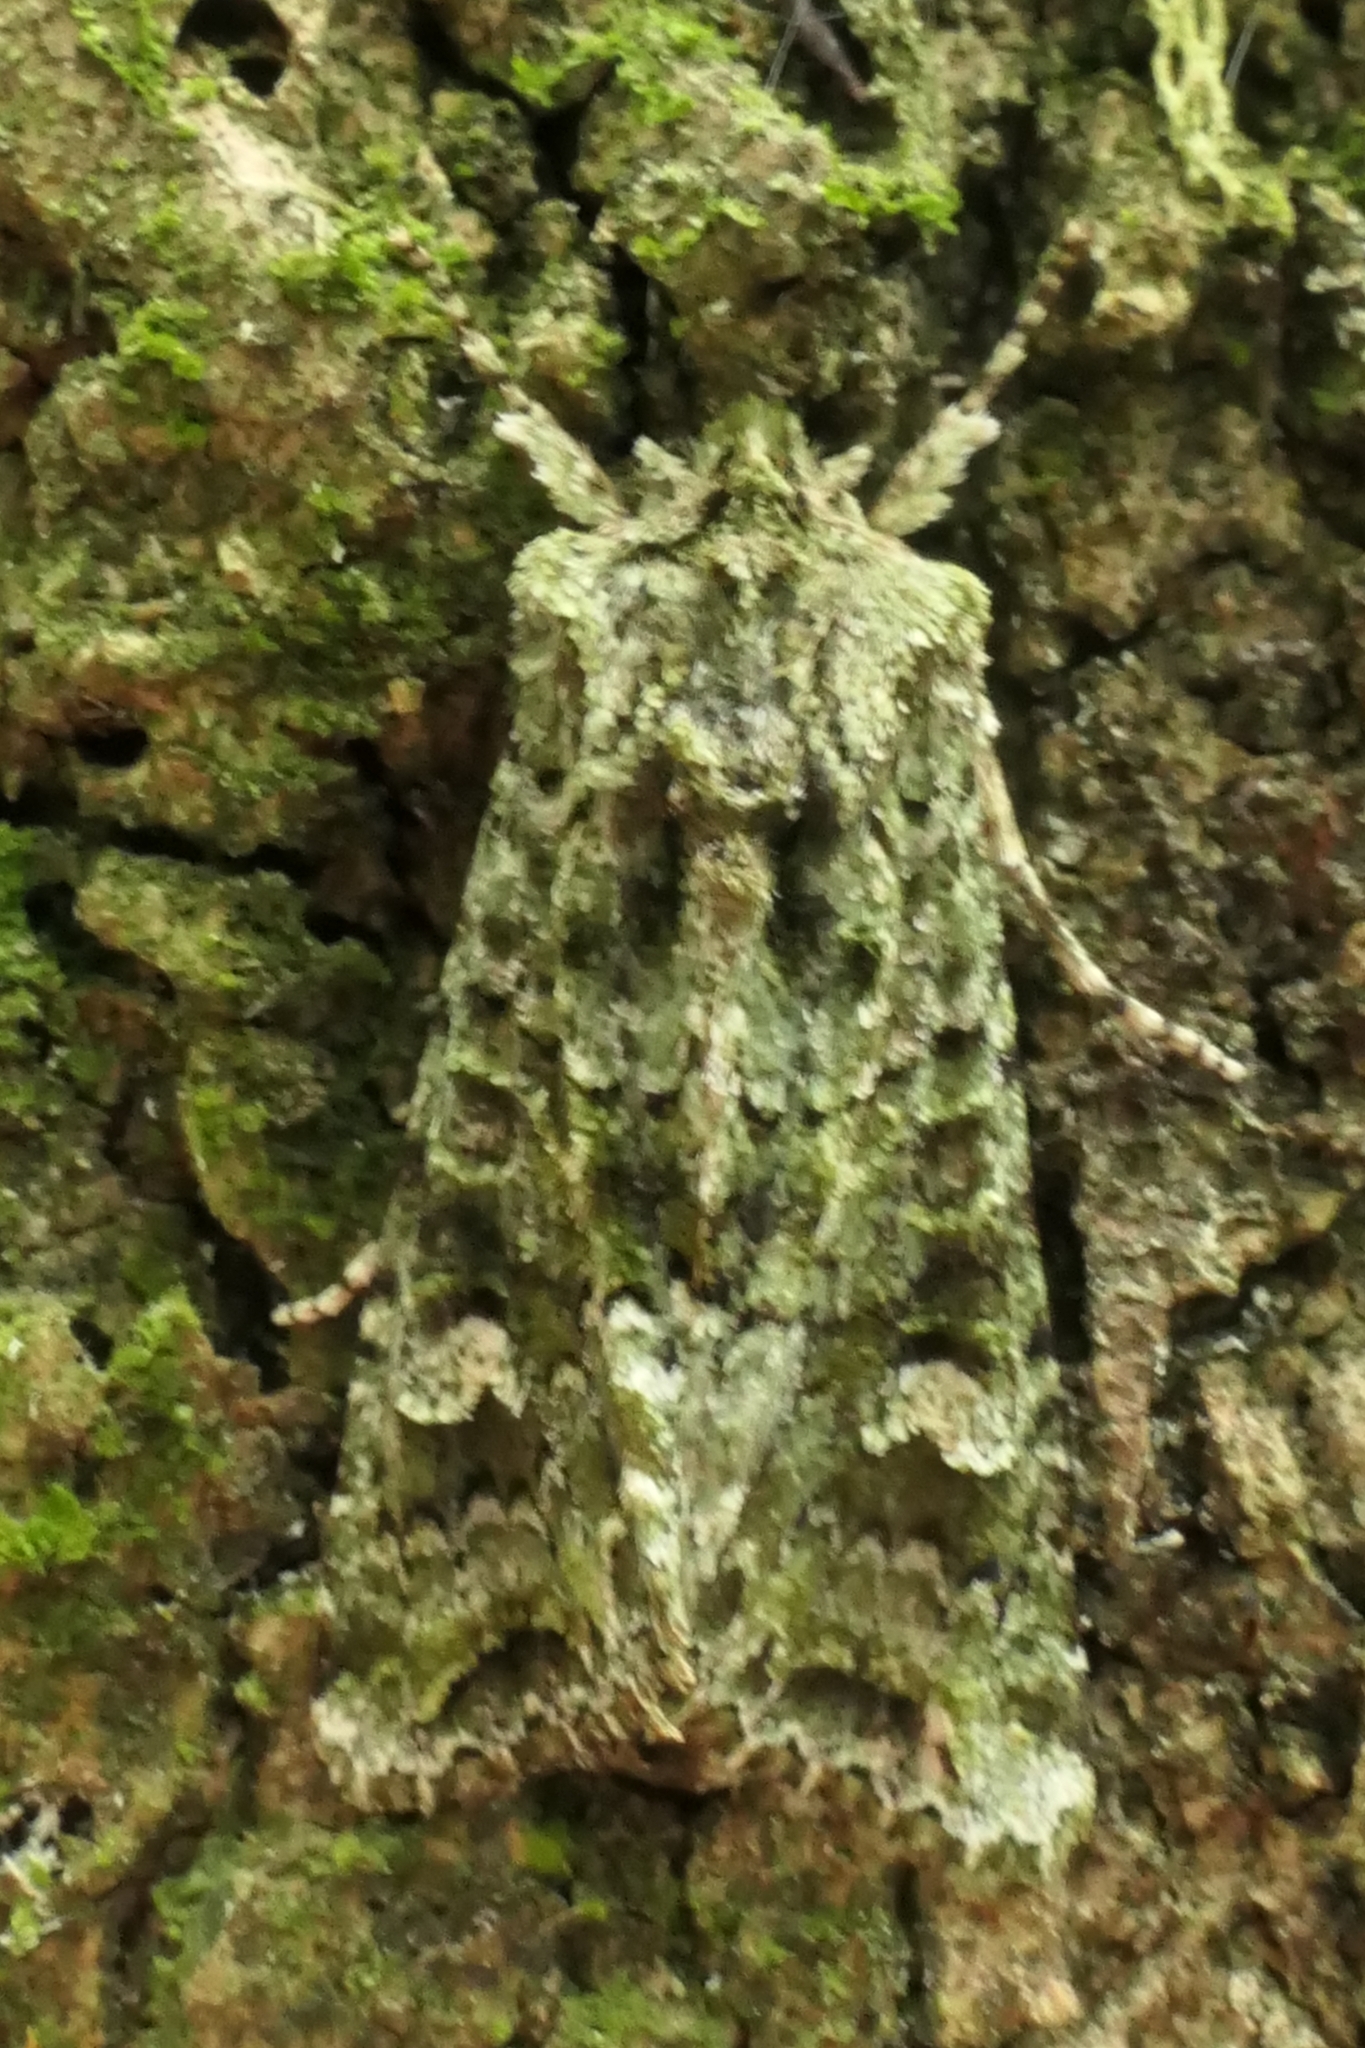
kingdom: Animalia
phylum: Arthropoda
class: Insecta
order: Lepidoptera
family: Noctuidae
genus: Ichneutica
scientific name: Ichneutica
